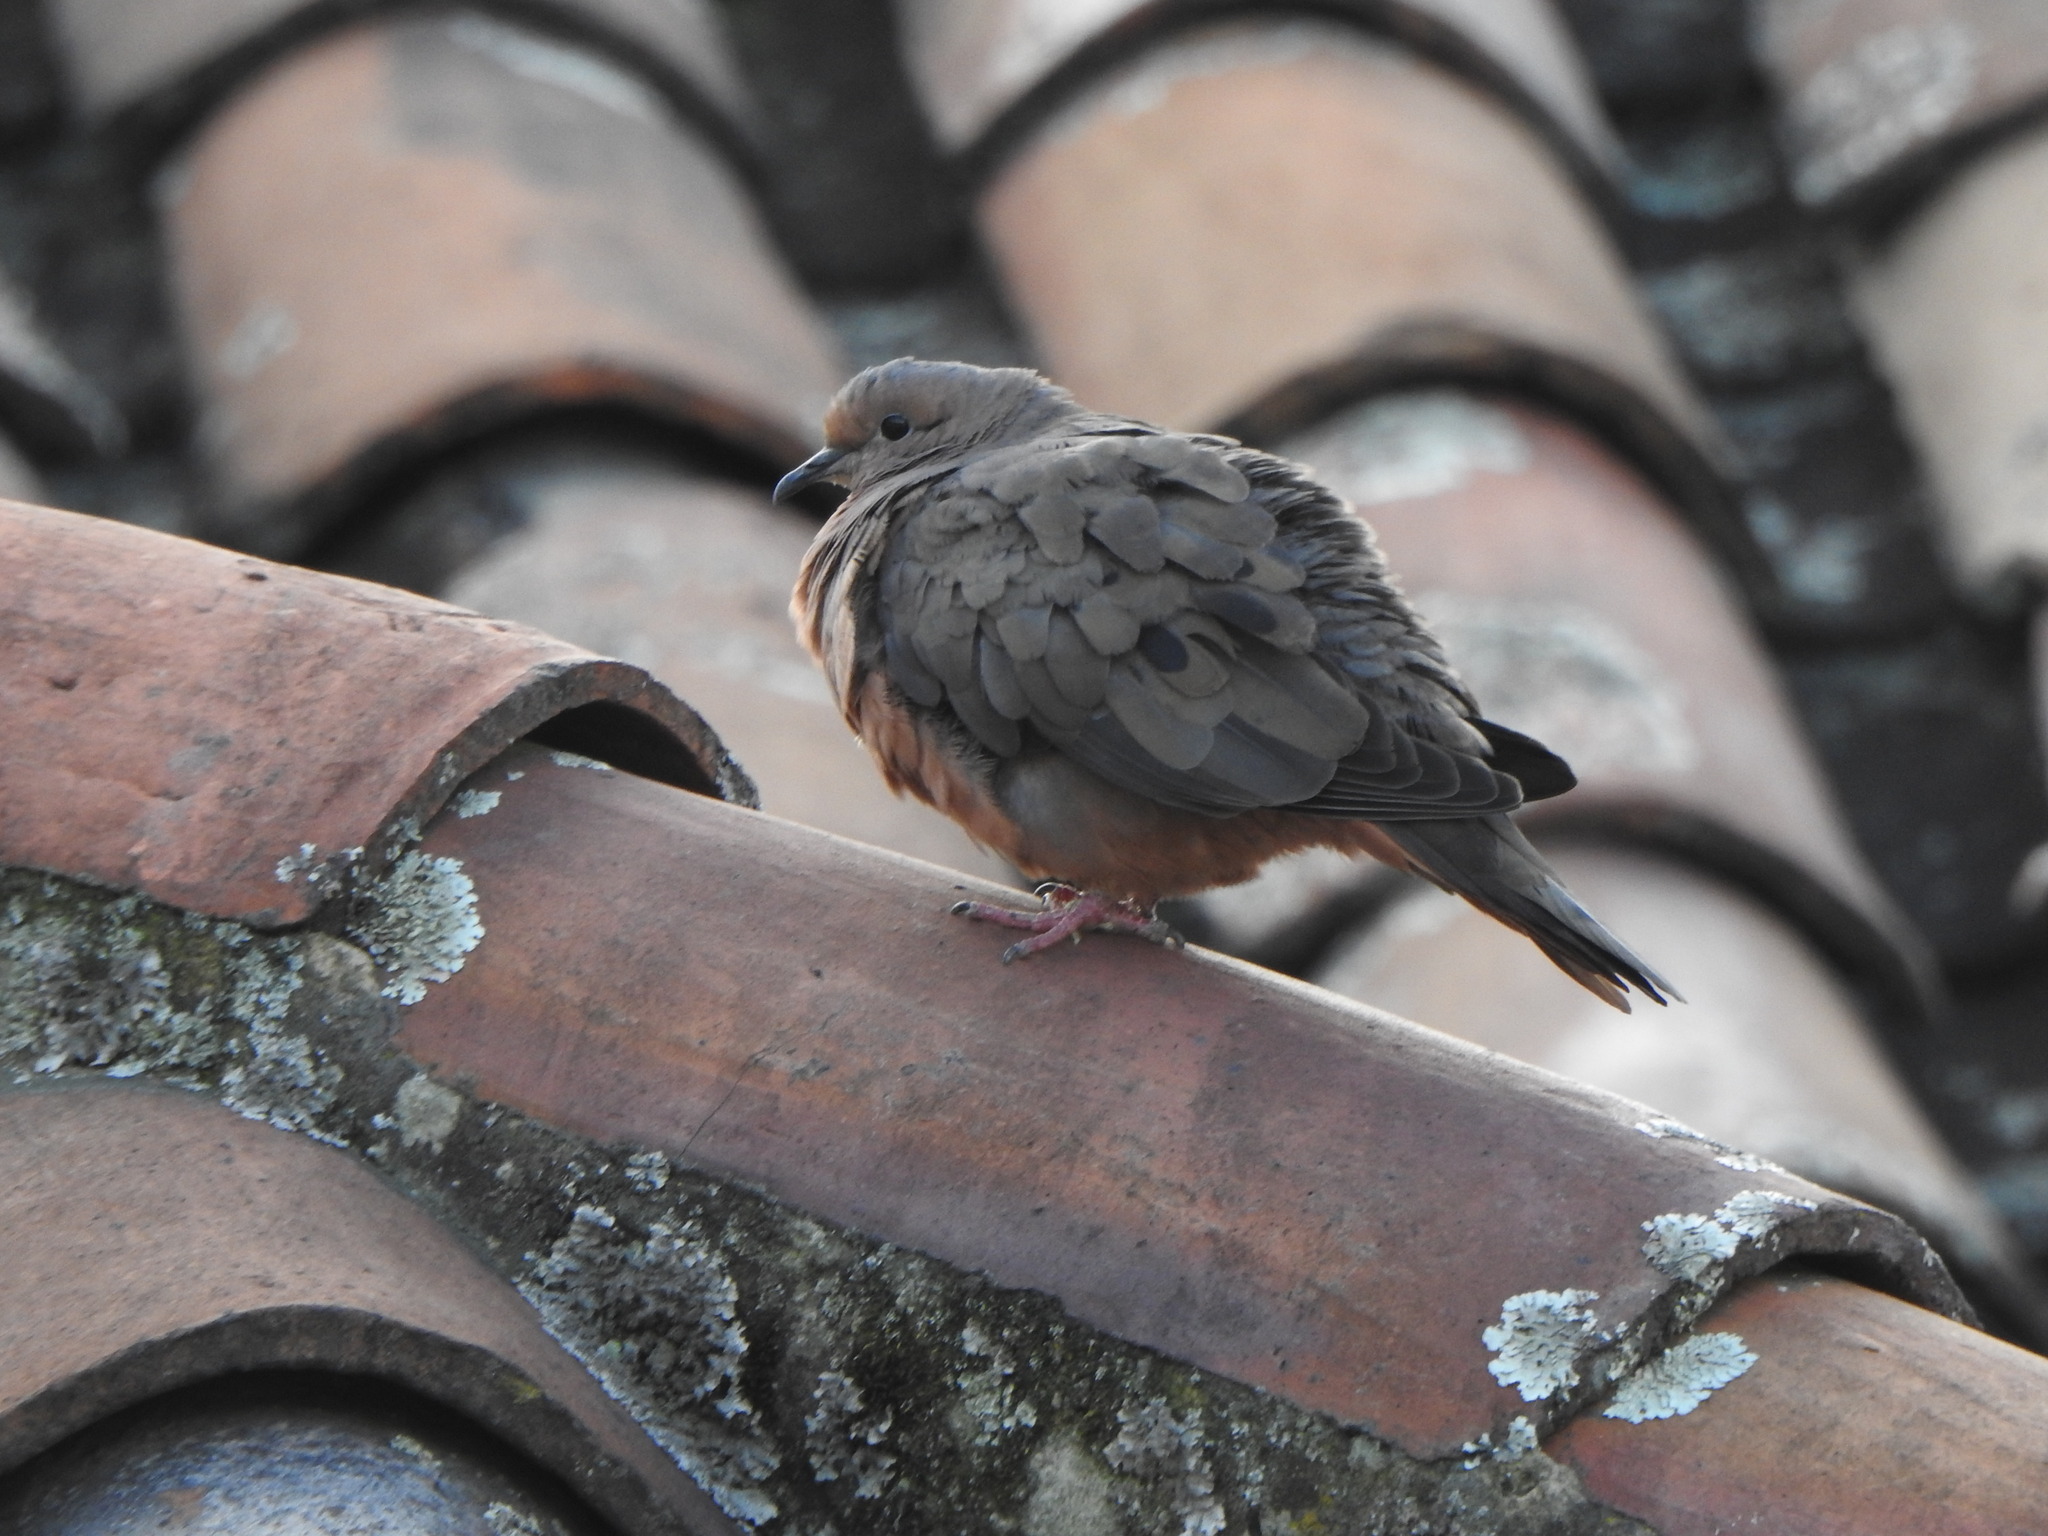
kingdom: Animalia
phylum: Chordata
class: Aves
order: Columbiformes
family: Columbidae
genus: Zenaida
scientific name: Zenaida auriculata
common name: Eared dove
